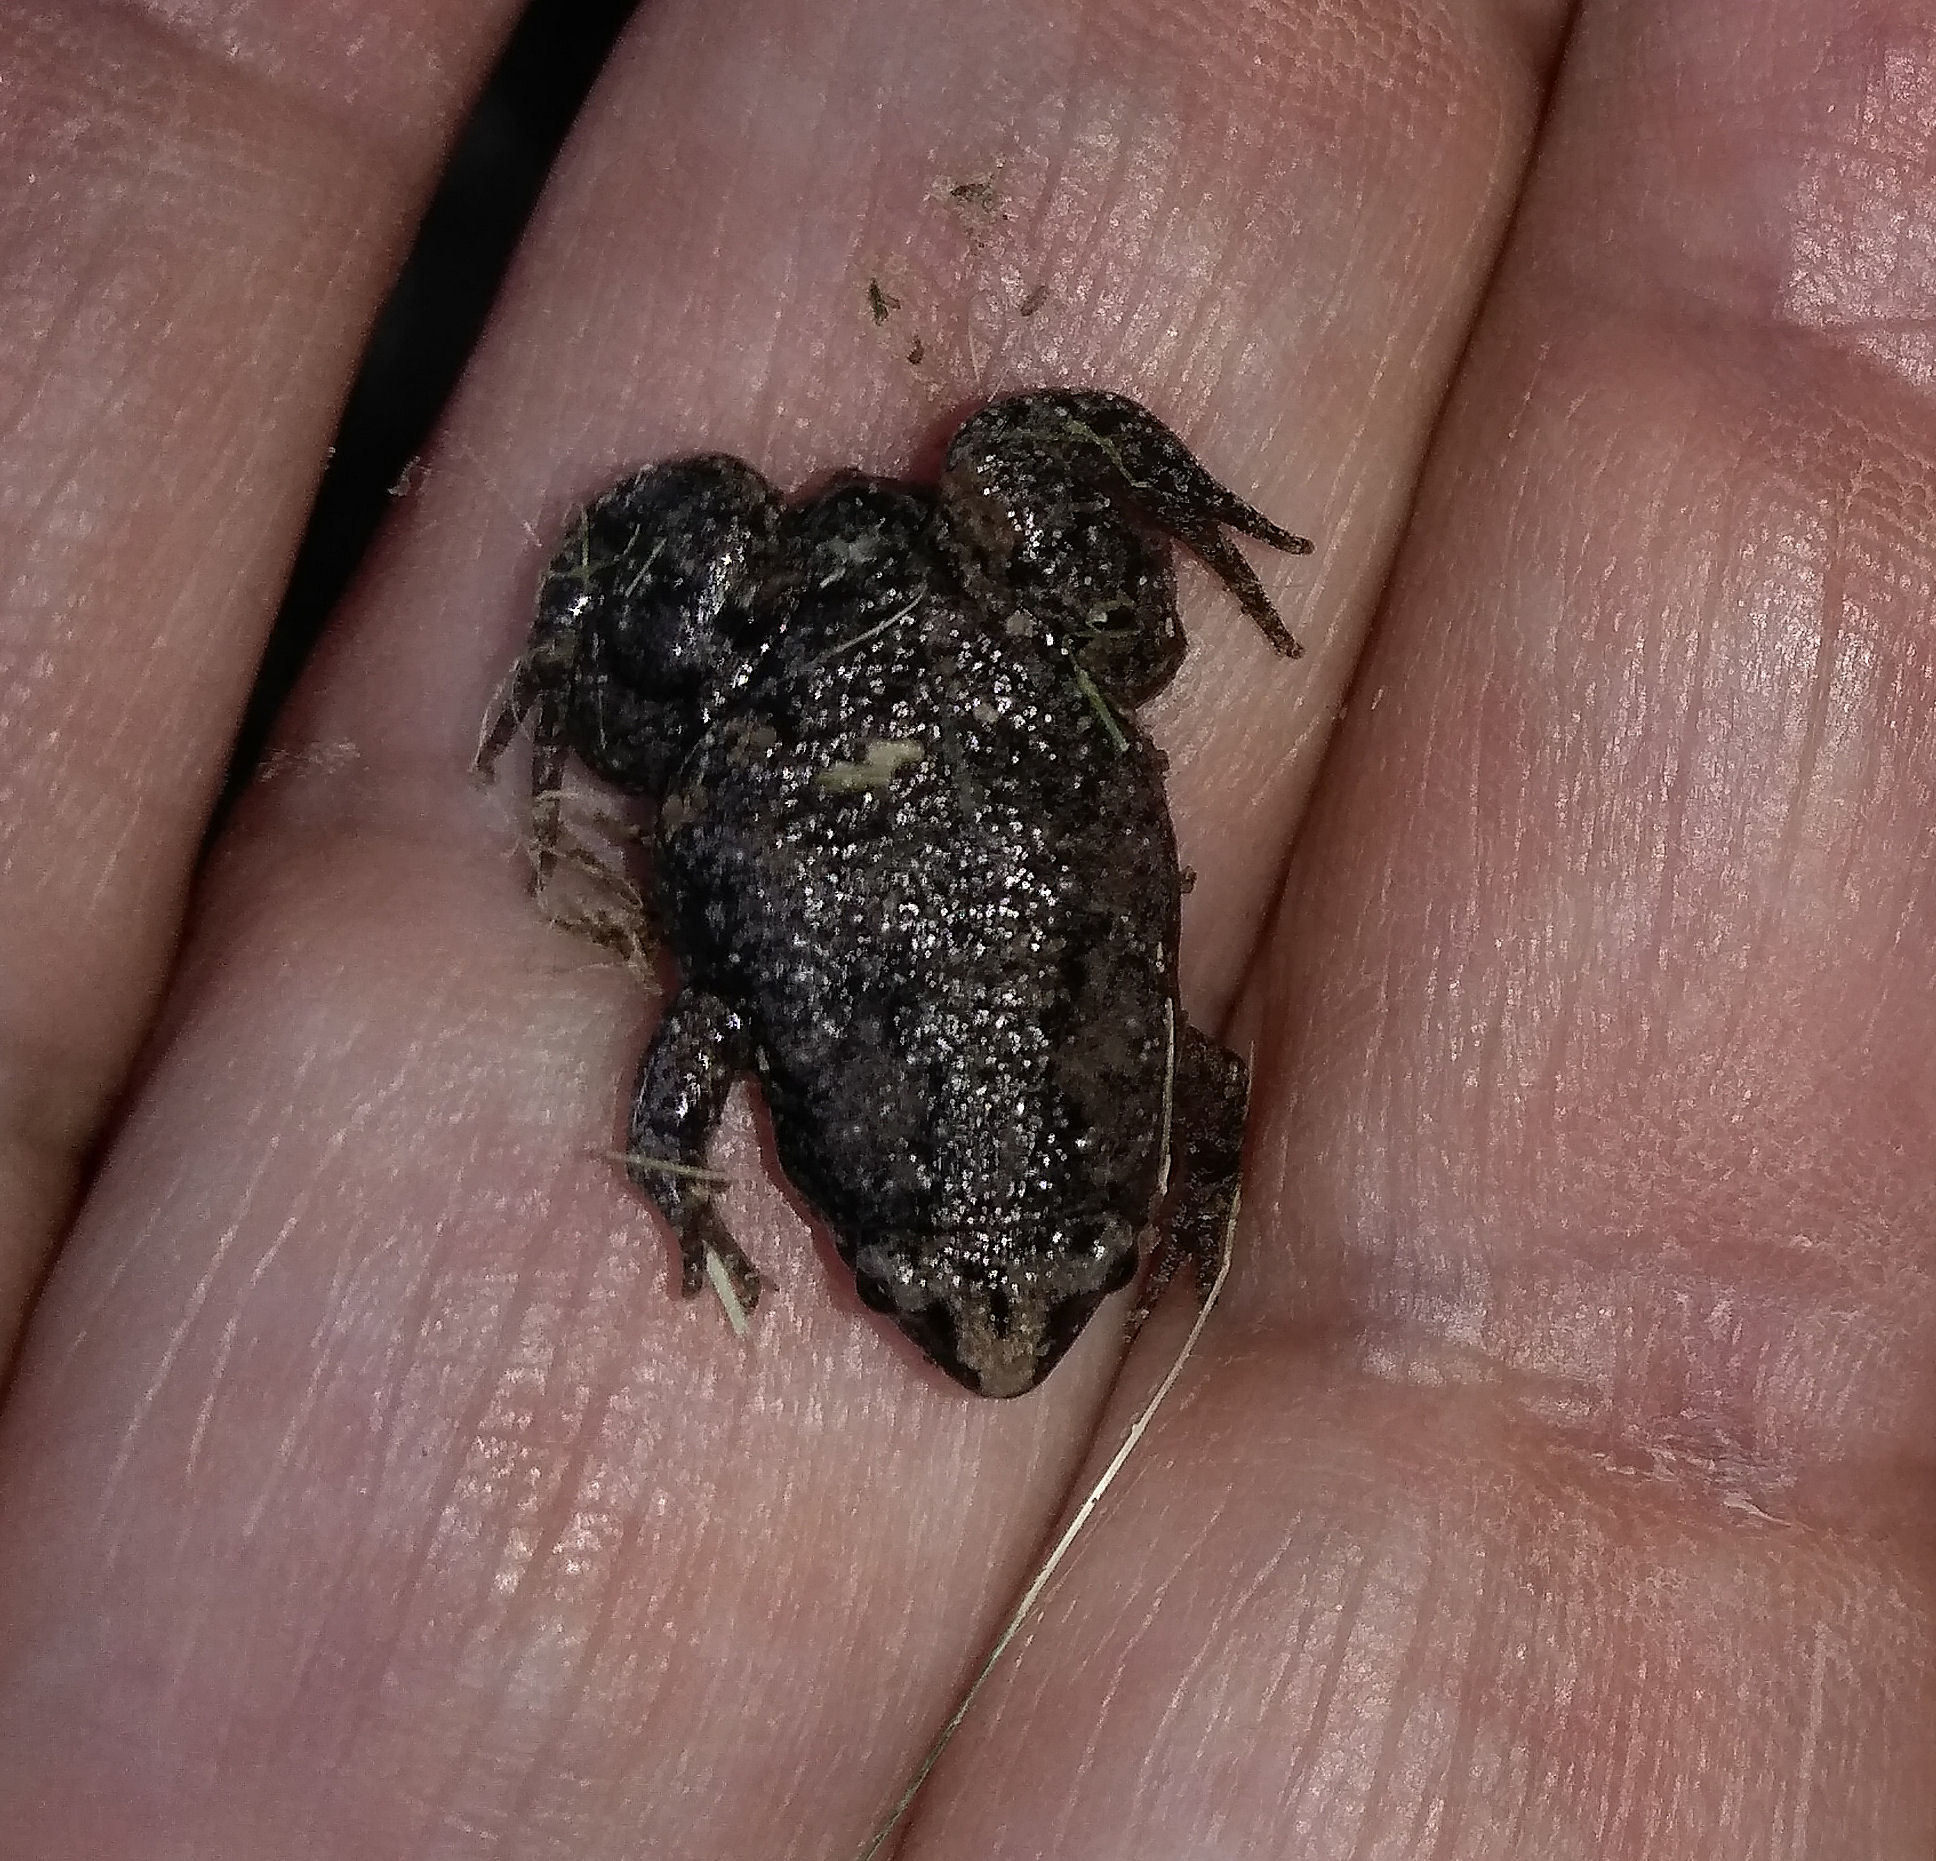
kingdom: Animalia
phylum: Chordata
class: Amphibia
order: Anura
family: Microhylidae
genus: Gastrophryne
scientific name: Gastrophryne carolinensis
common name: Eastern narrowmouth toad
